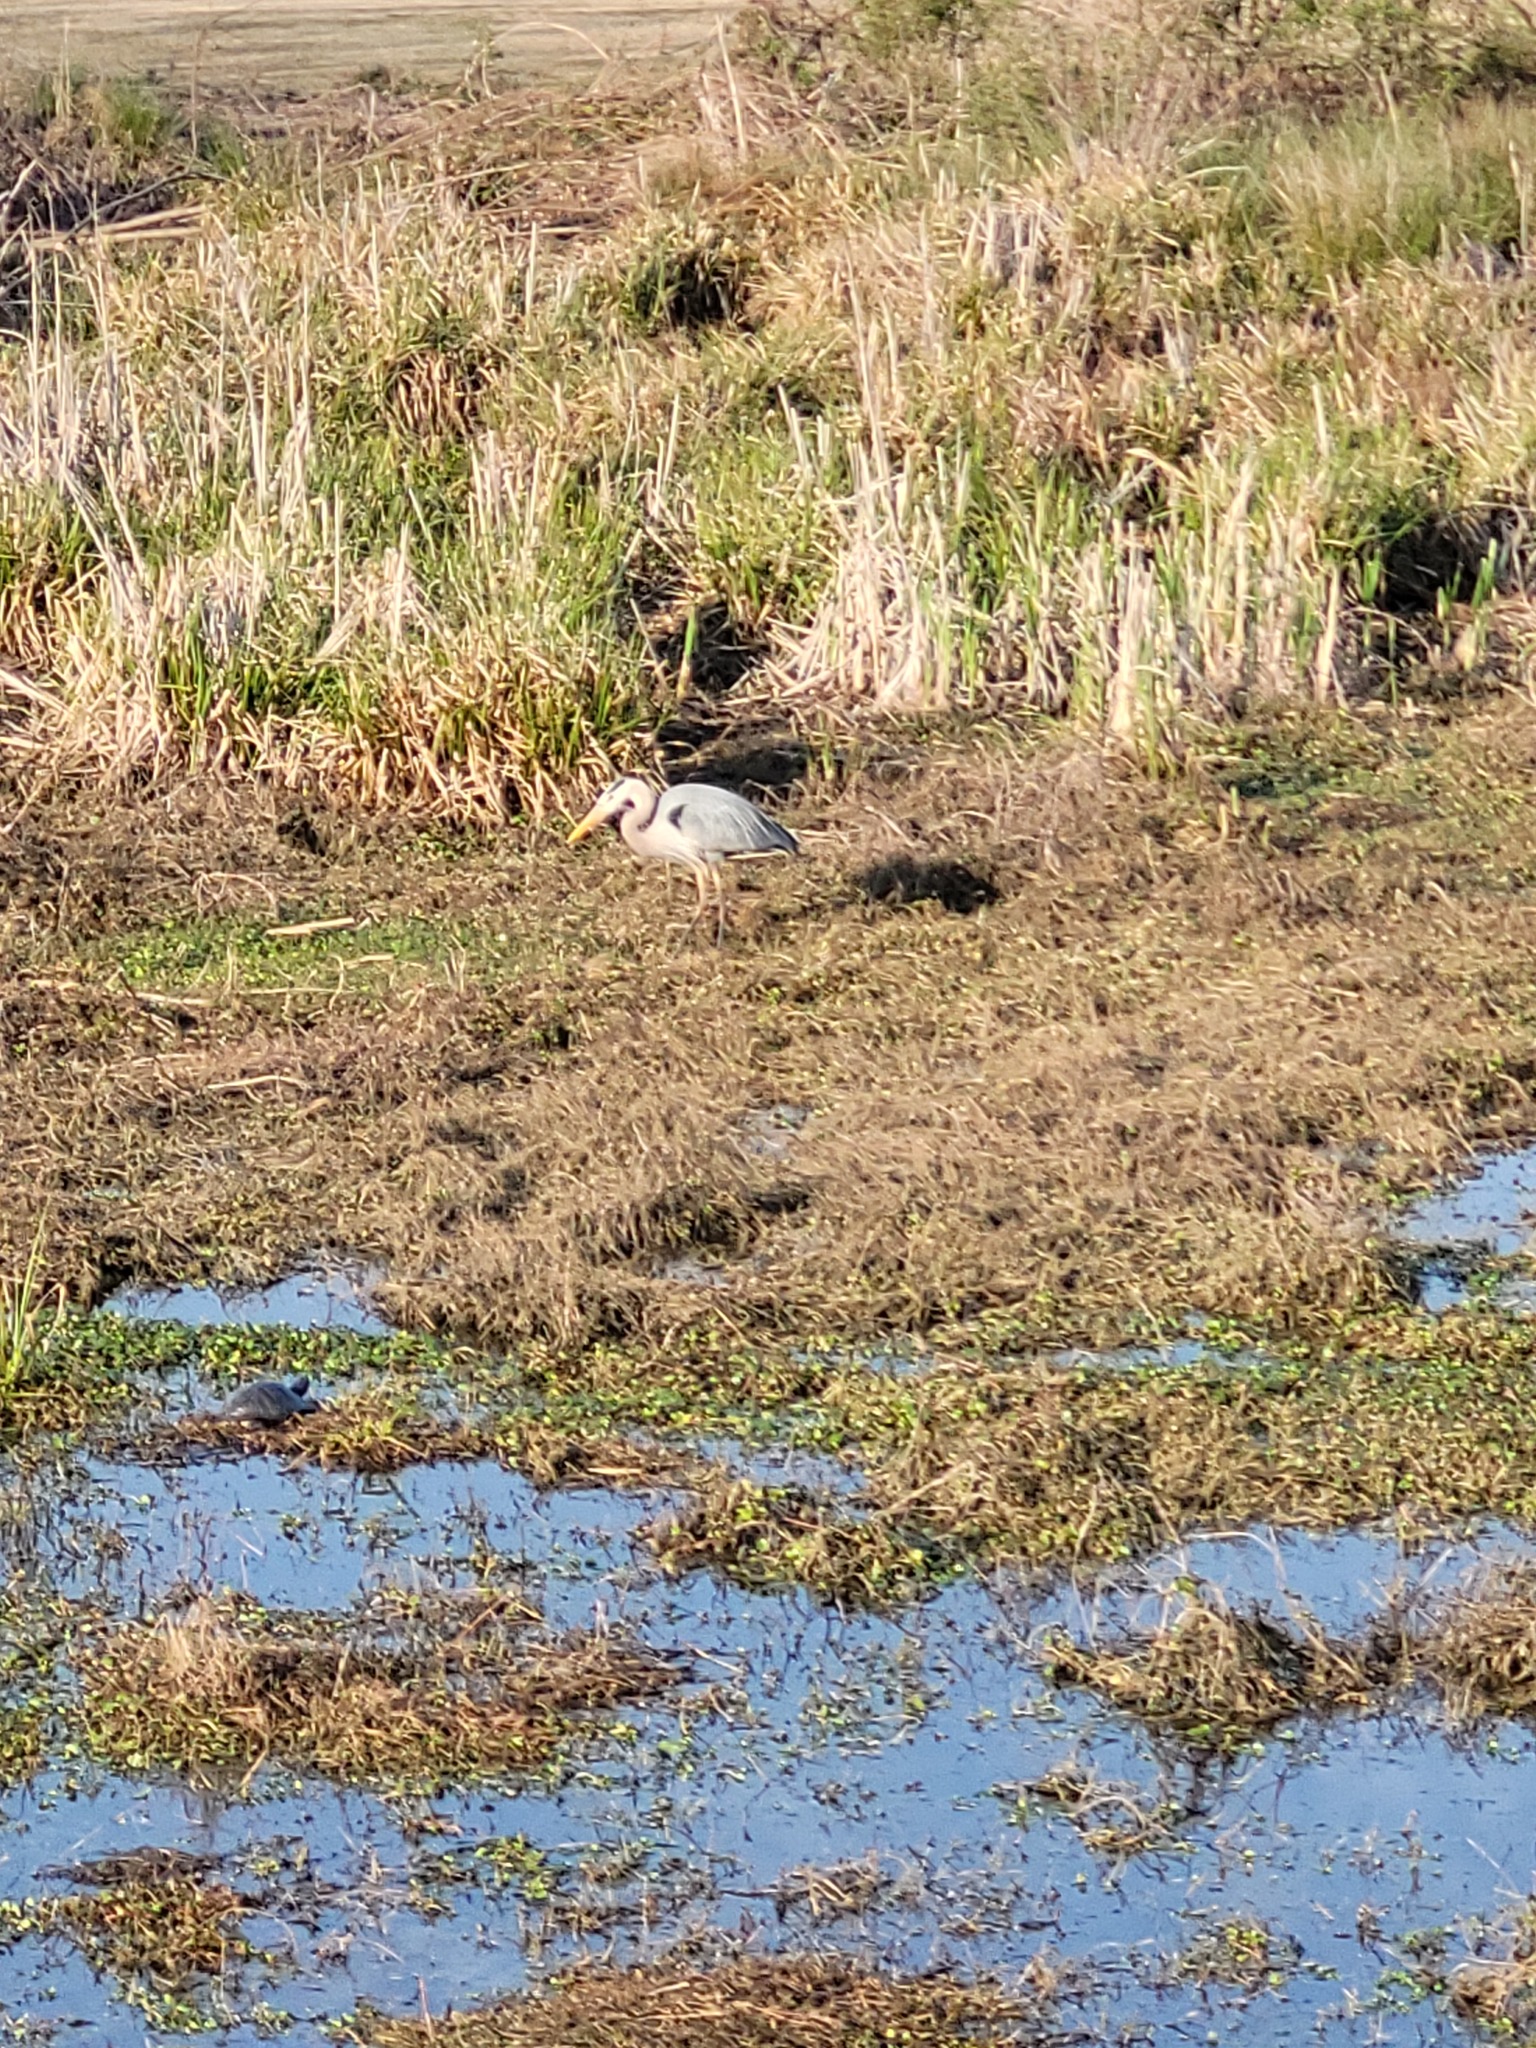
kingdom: Animalia
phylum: Chordata
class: Aves
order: Pelecaniformes
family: Ardeidae
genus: Ardea
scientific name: Ardea herodias
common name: Great blue heron
